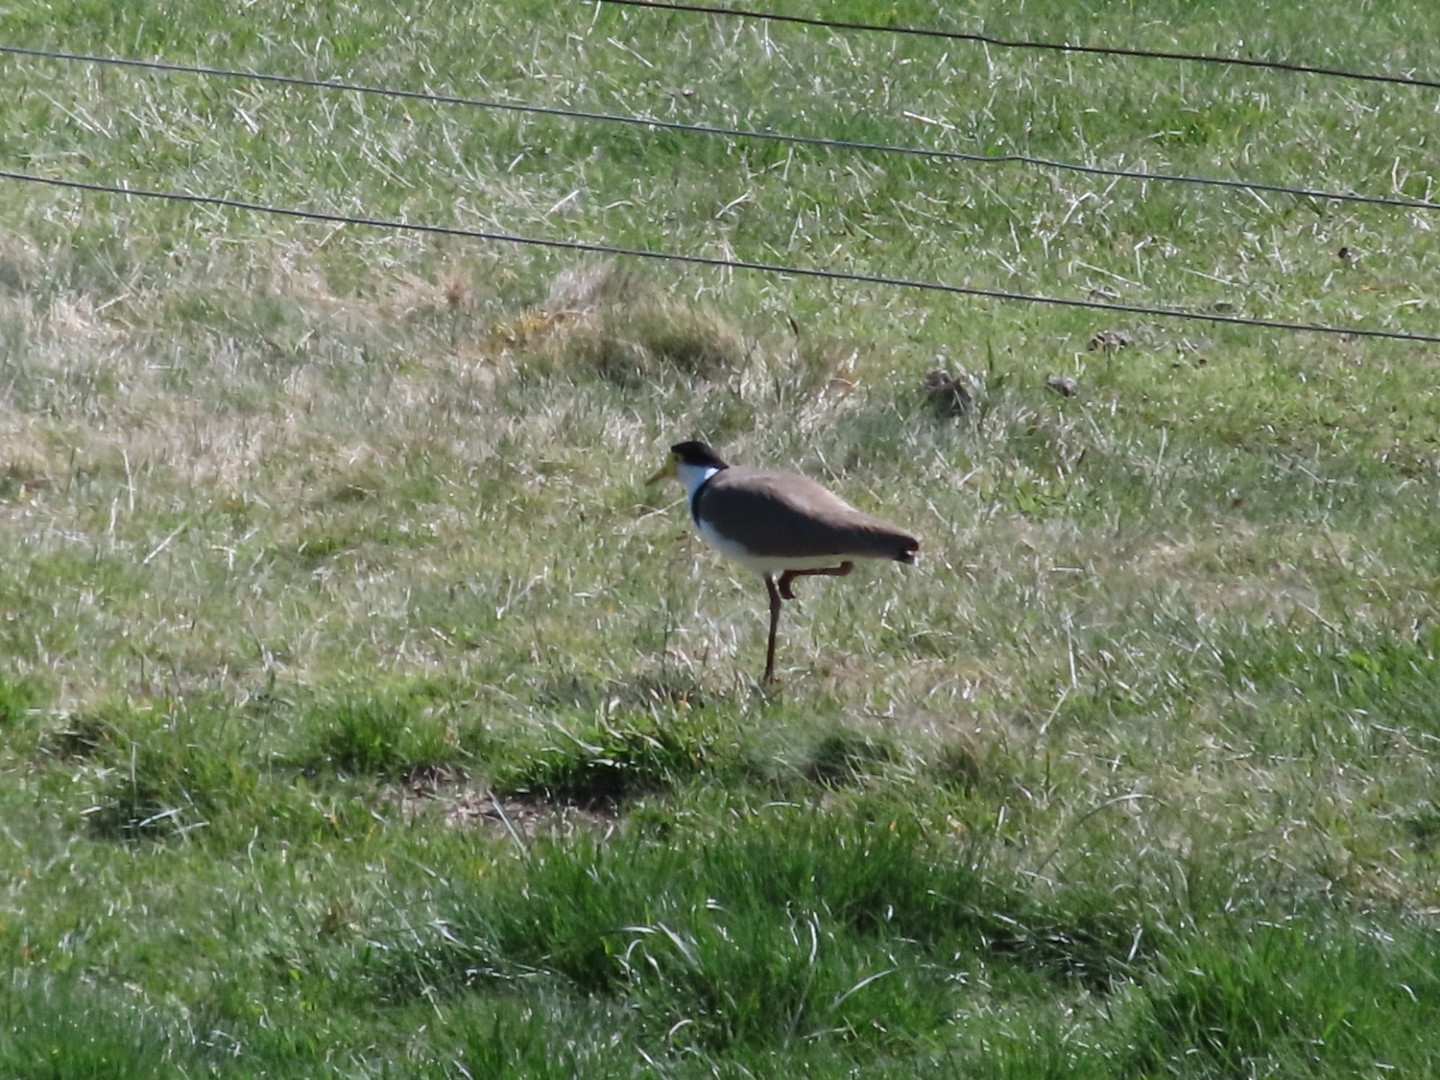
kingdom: Animalia
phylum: Chordata
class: Aves
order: Charadriiformes
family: Charadriidae
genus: Vanellus
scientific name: Vanellus miles
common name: Masked lapwing
